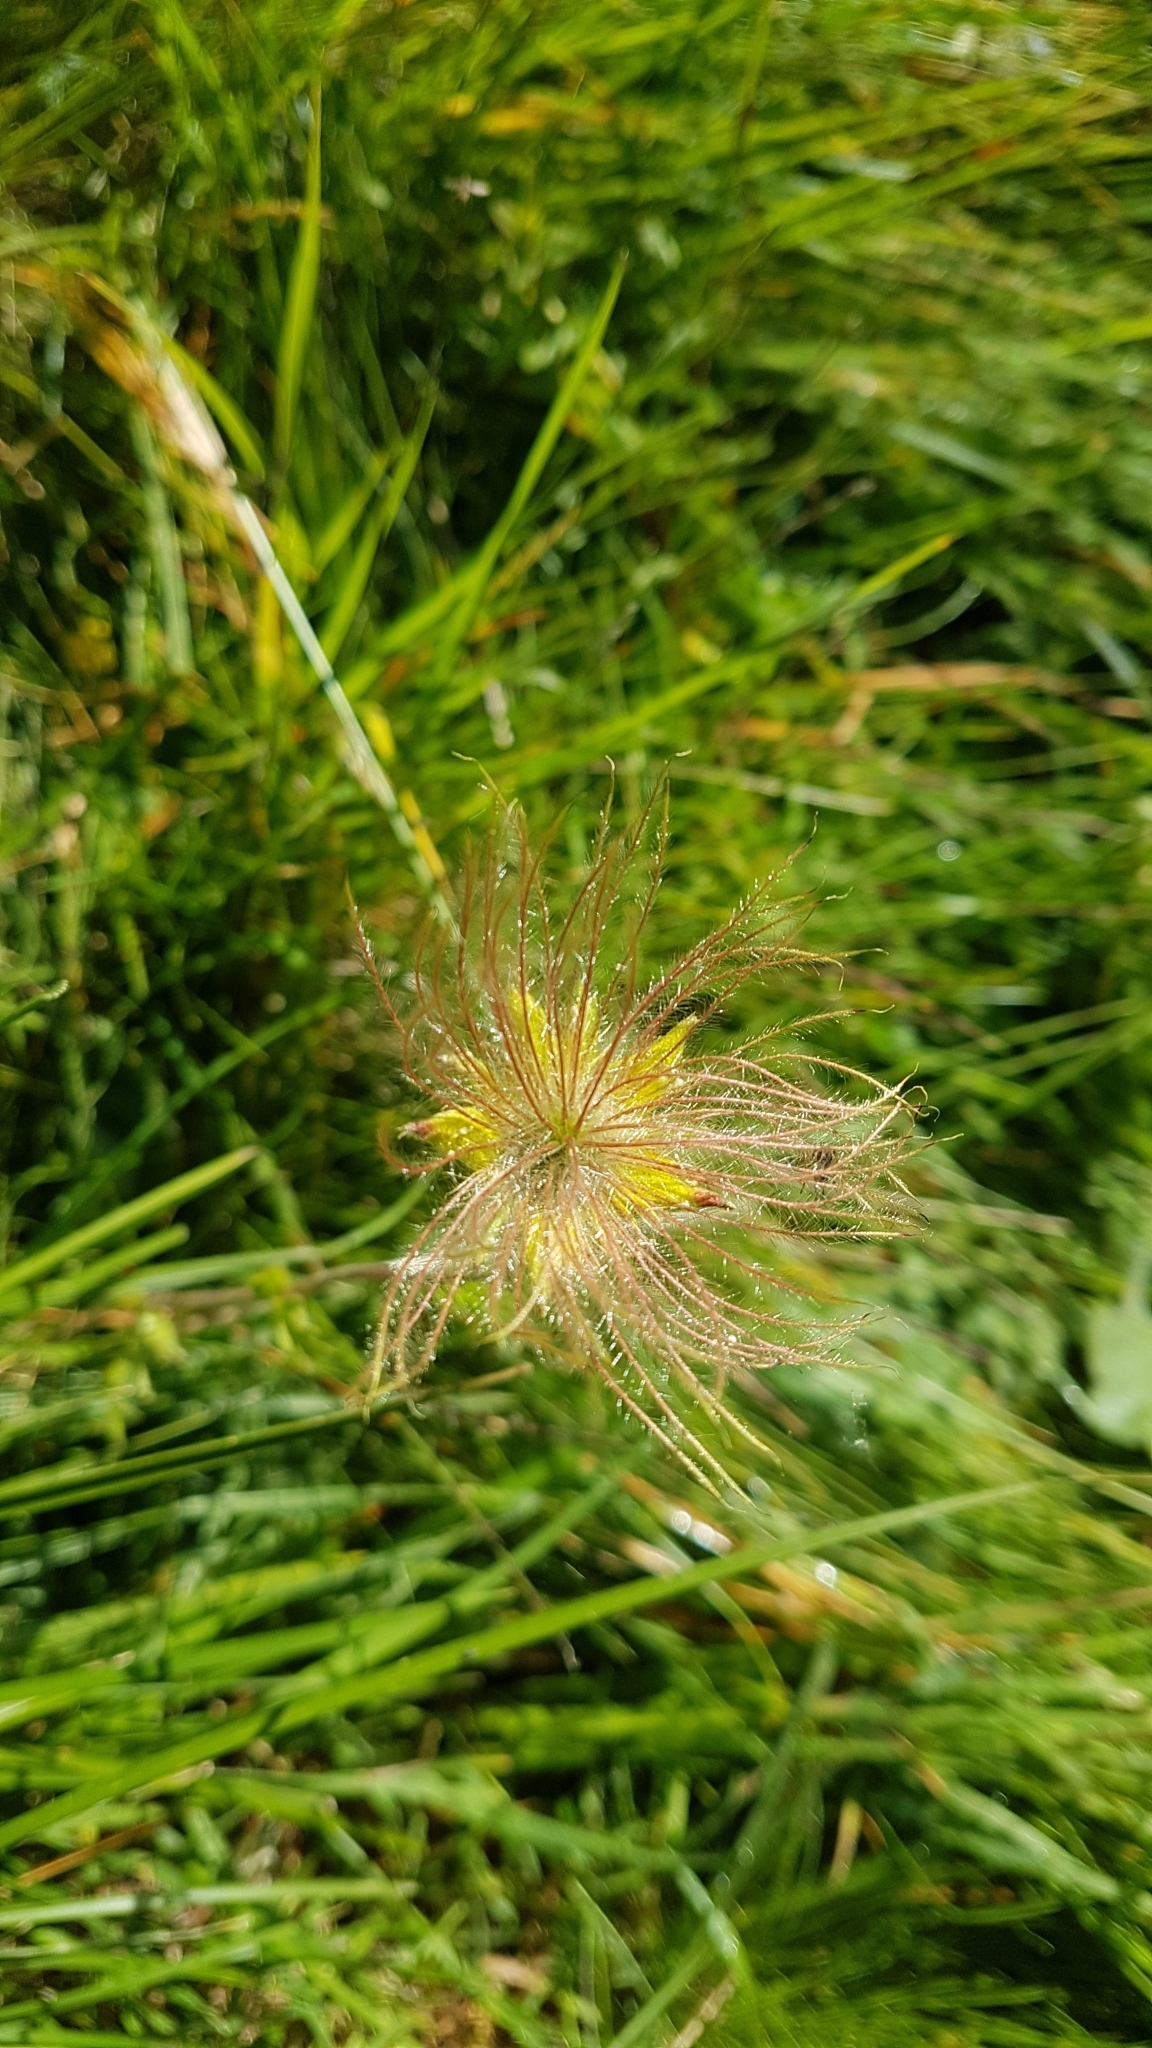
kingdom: Plantae
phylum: Tracheophyta
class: Magnoliopsida
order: Rosales
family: Rosaceae
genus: Geum
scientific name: Geum montanum
